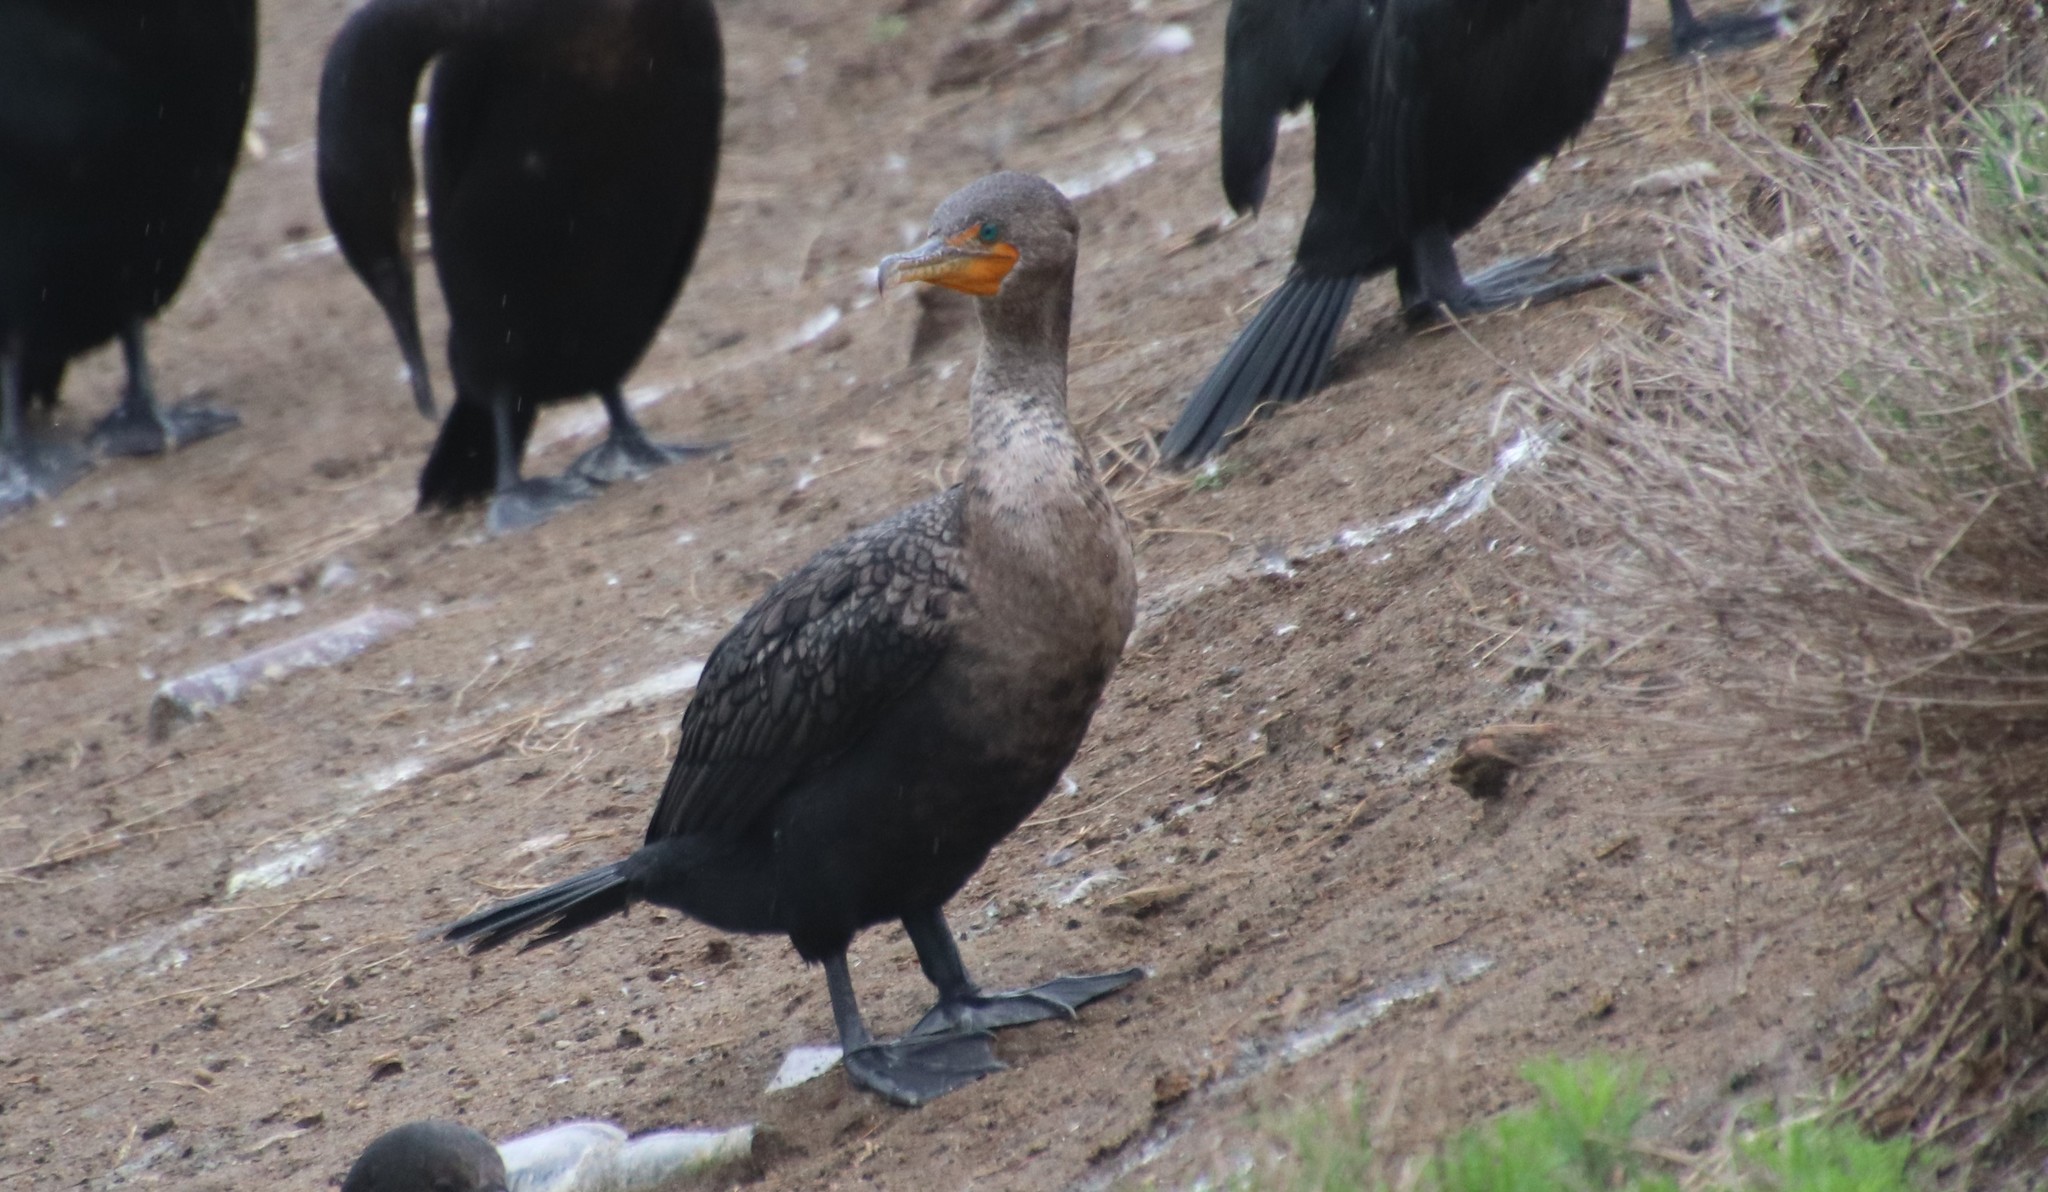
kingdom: Animalia
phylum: Chordata
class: Aves
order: Suliformes
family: Phalacrocoracidae
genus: Phalacrocorax
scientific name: Phalacrocorax auritus
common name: Double-crested cormorant
